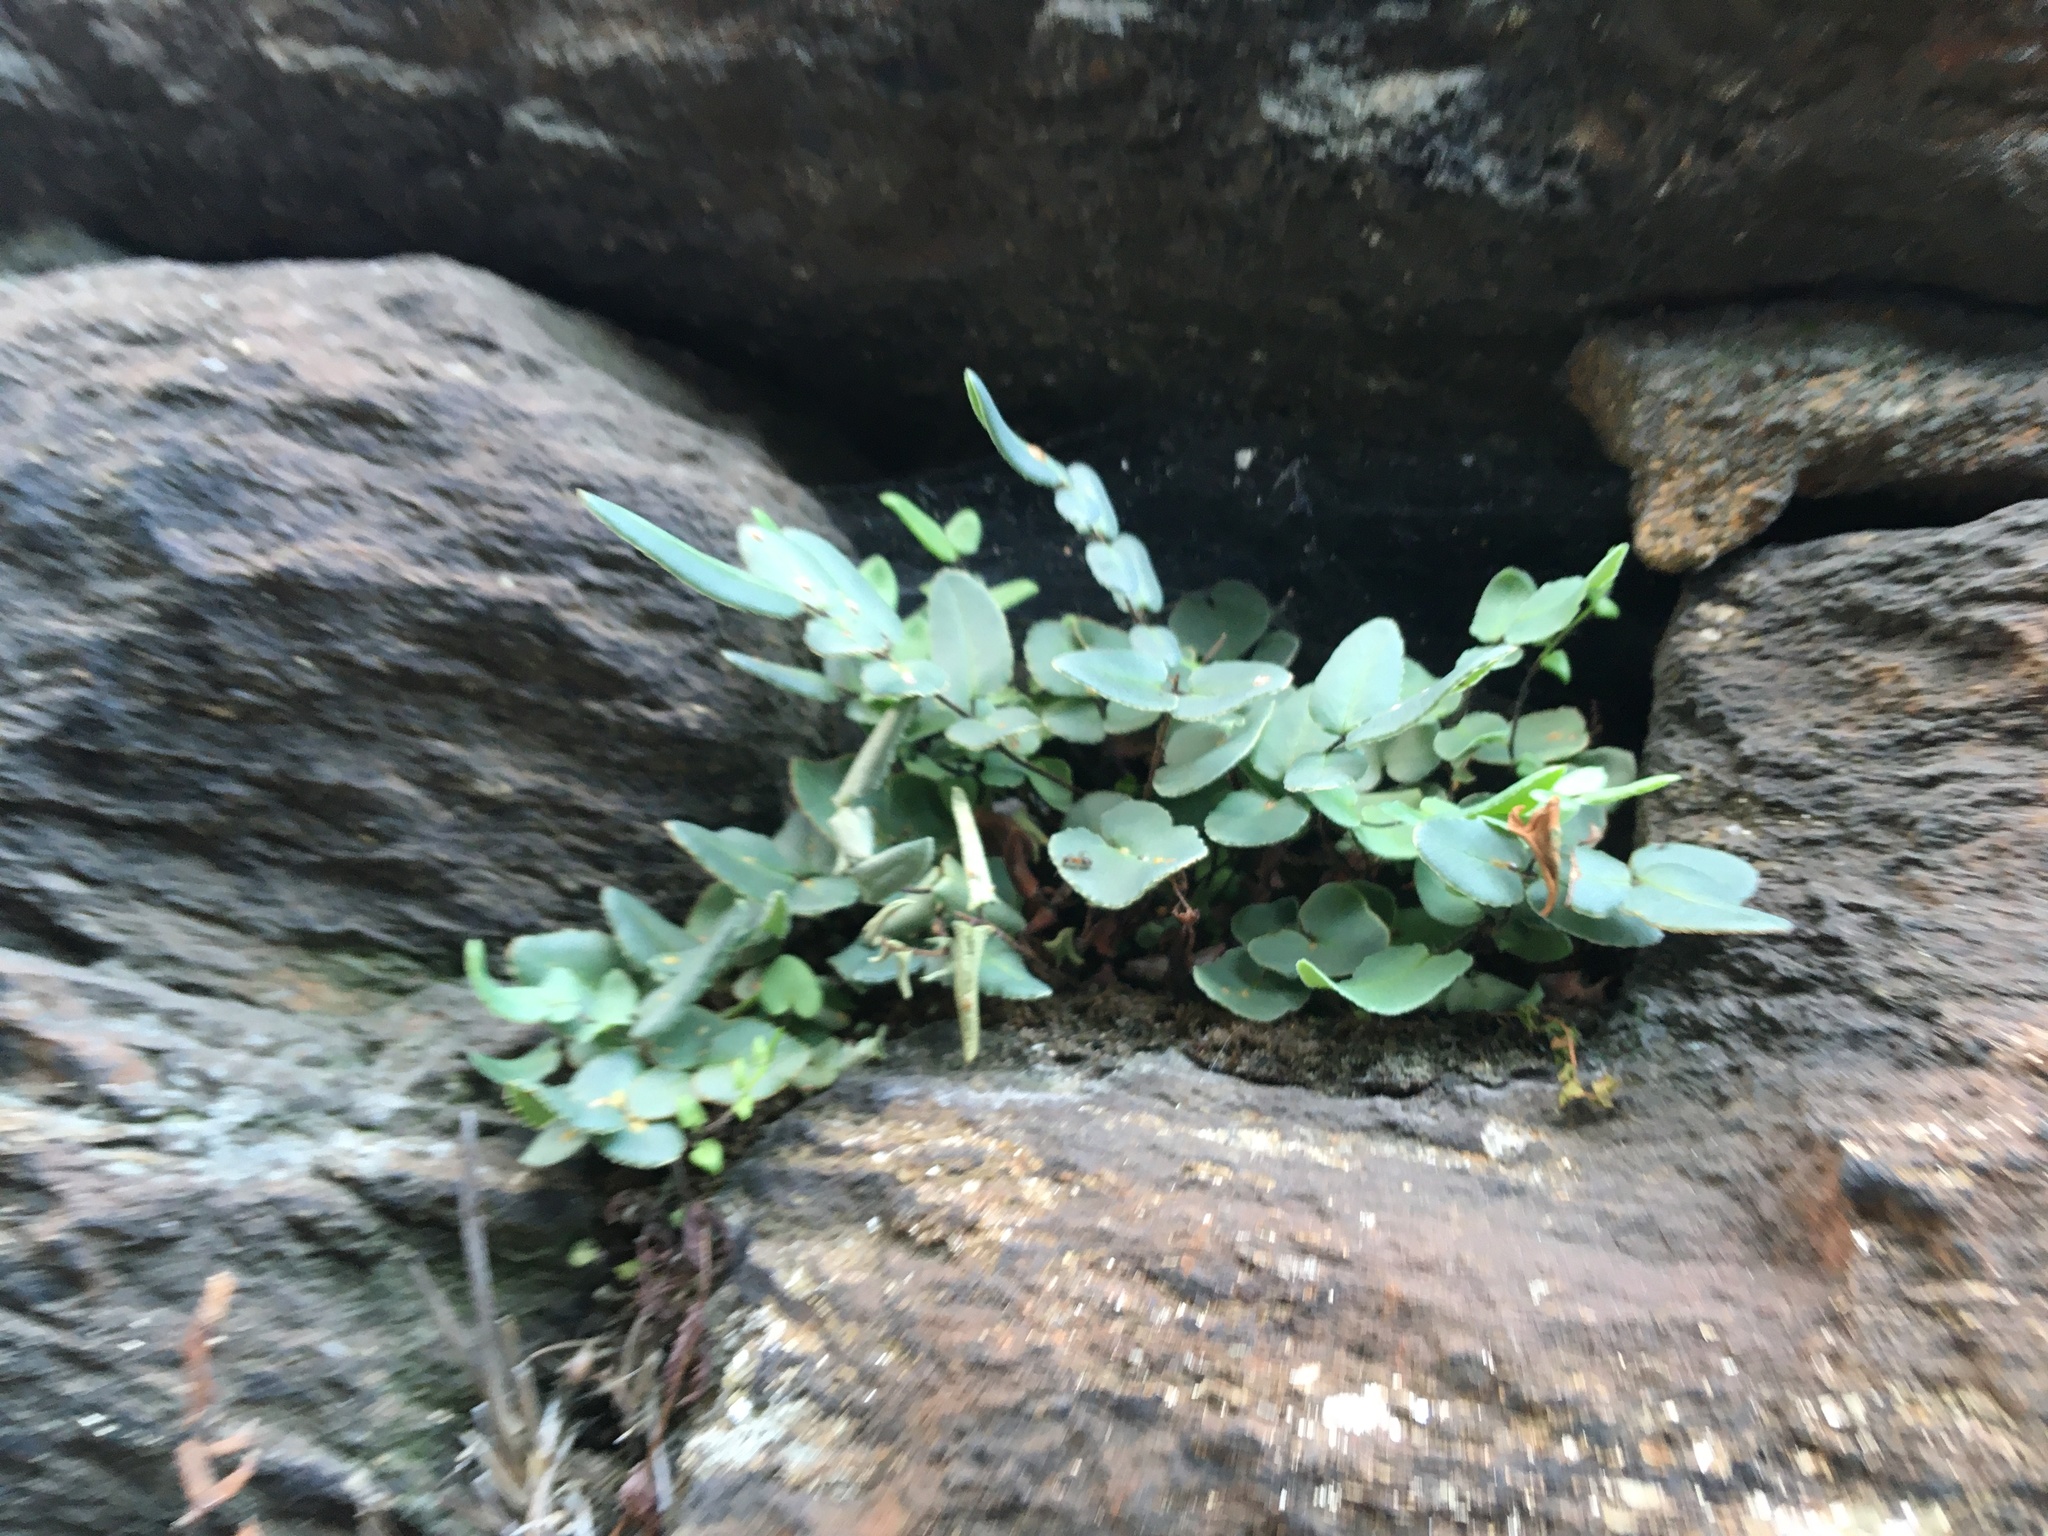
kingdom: Plantae
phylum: Tracheophyta
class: Polypodiopsida
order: Polypodiales
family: Pteridaceae
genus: Pellaea
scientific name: Pellaea atropurpurea
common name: Hairy cliffbrake
